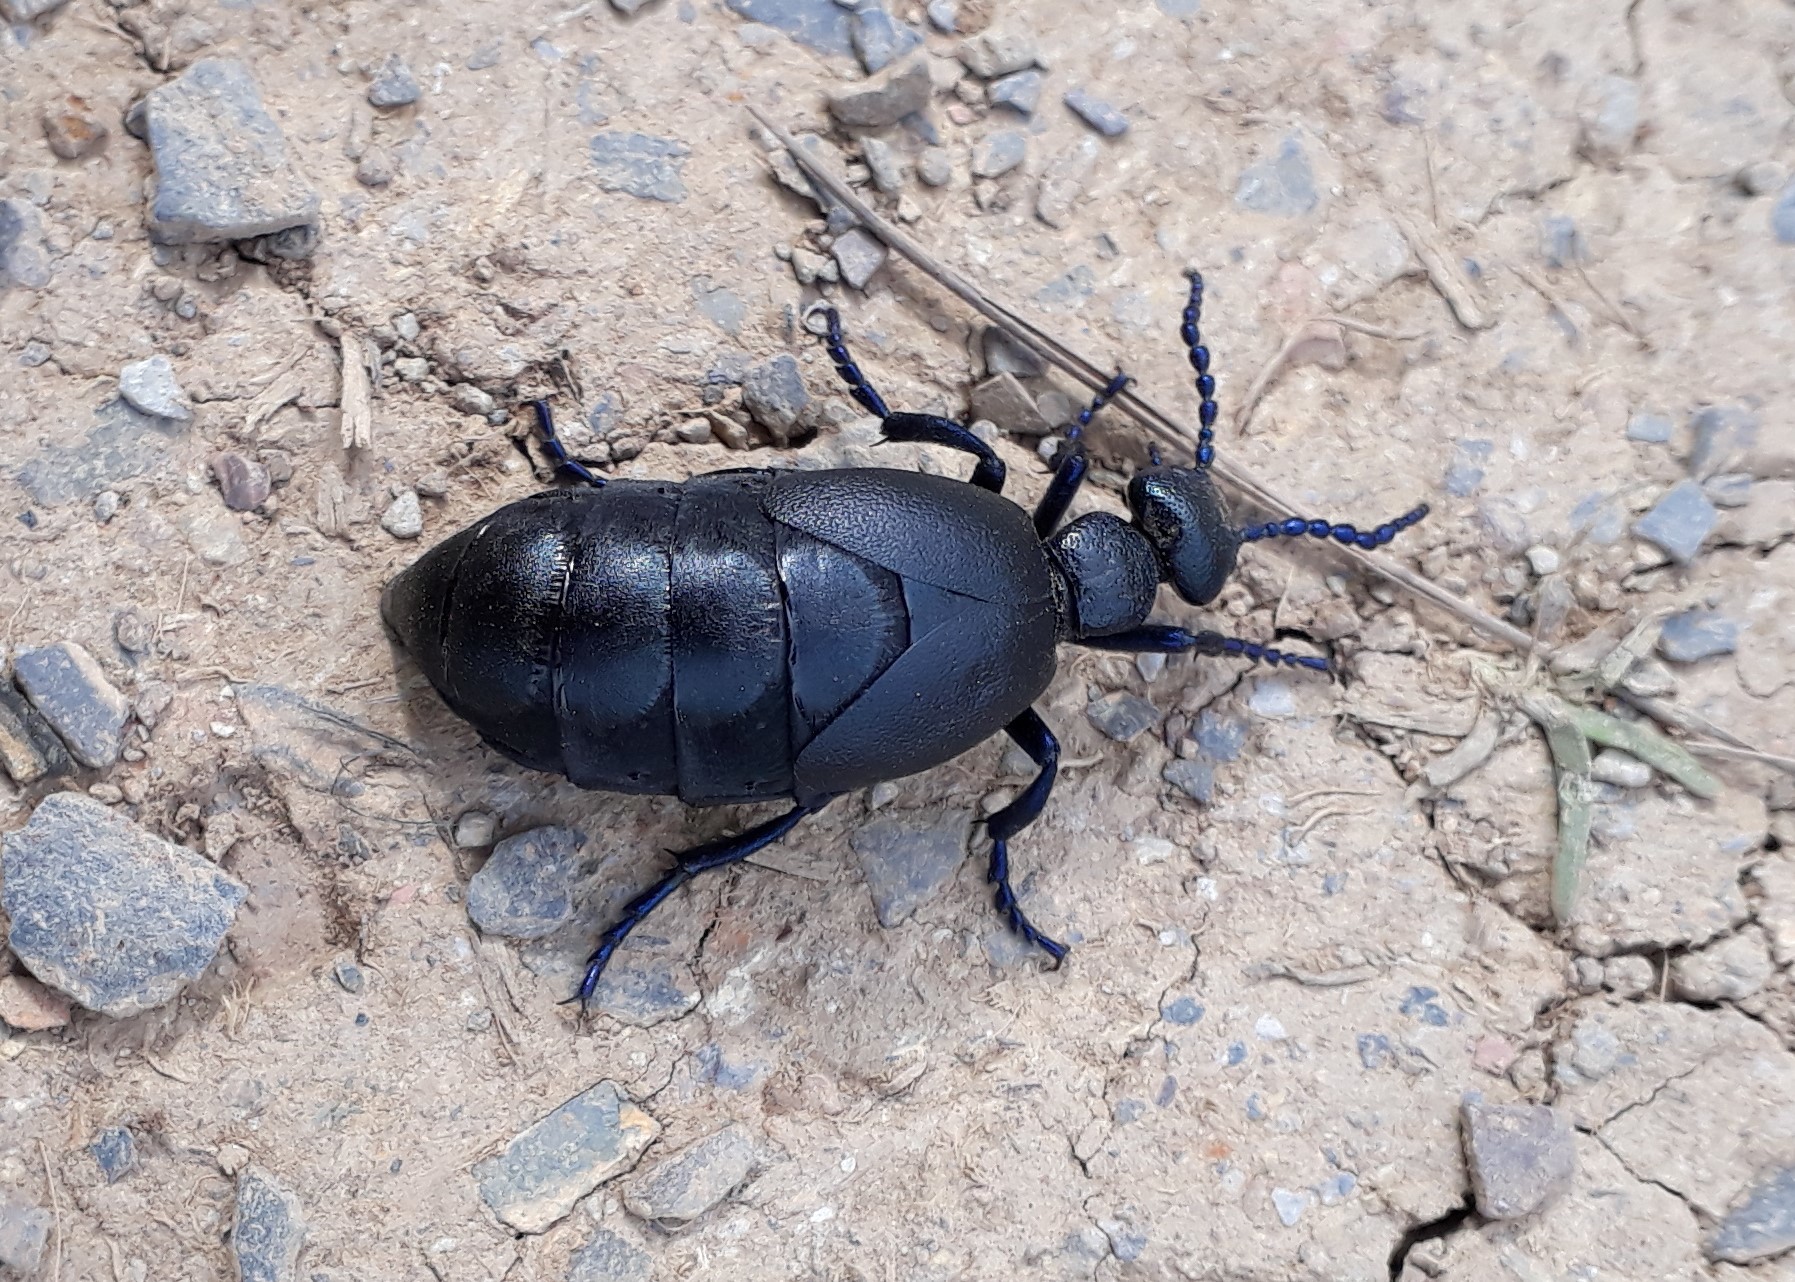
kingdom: Animalia
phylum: Arthropoda
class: Insecta
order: Coleoptera
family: Meloidae
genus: Meloe
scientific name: Meloe proscarabaeus
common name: Black oil-beetle
